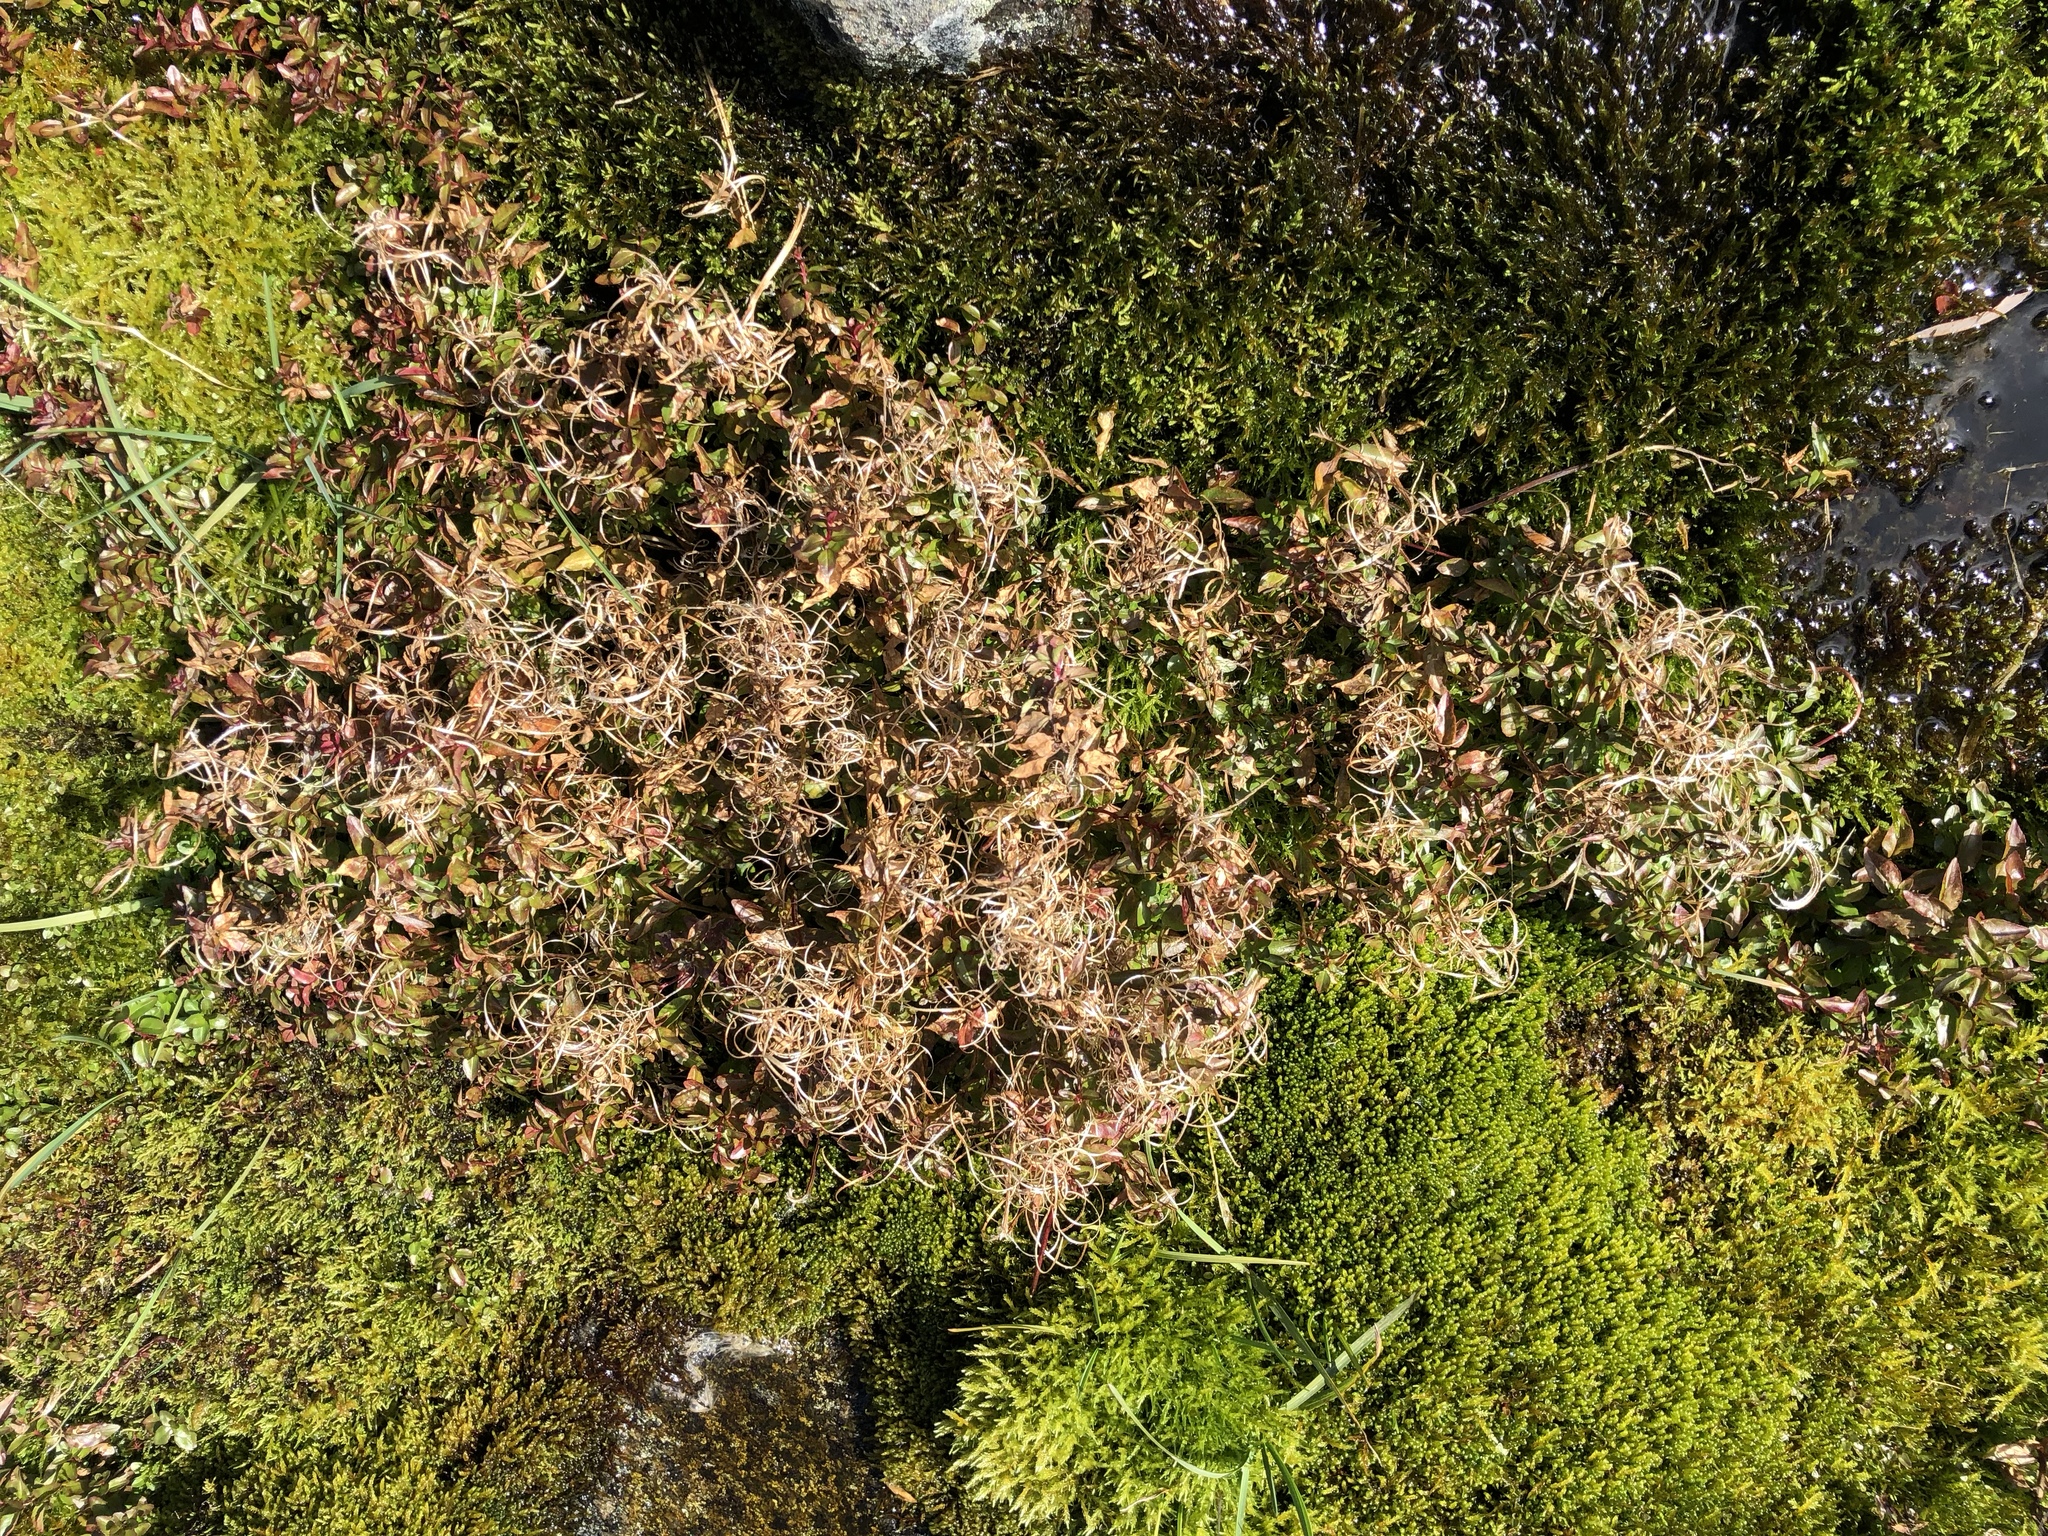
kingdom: Plantae
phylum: Tracheophyta
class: Magnoliopsida
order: Myrtales
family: Onagraceae
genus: Epilobium
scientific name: Epilobium hornemannii
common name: Hornemann's willowherb
